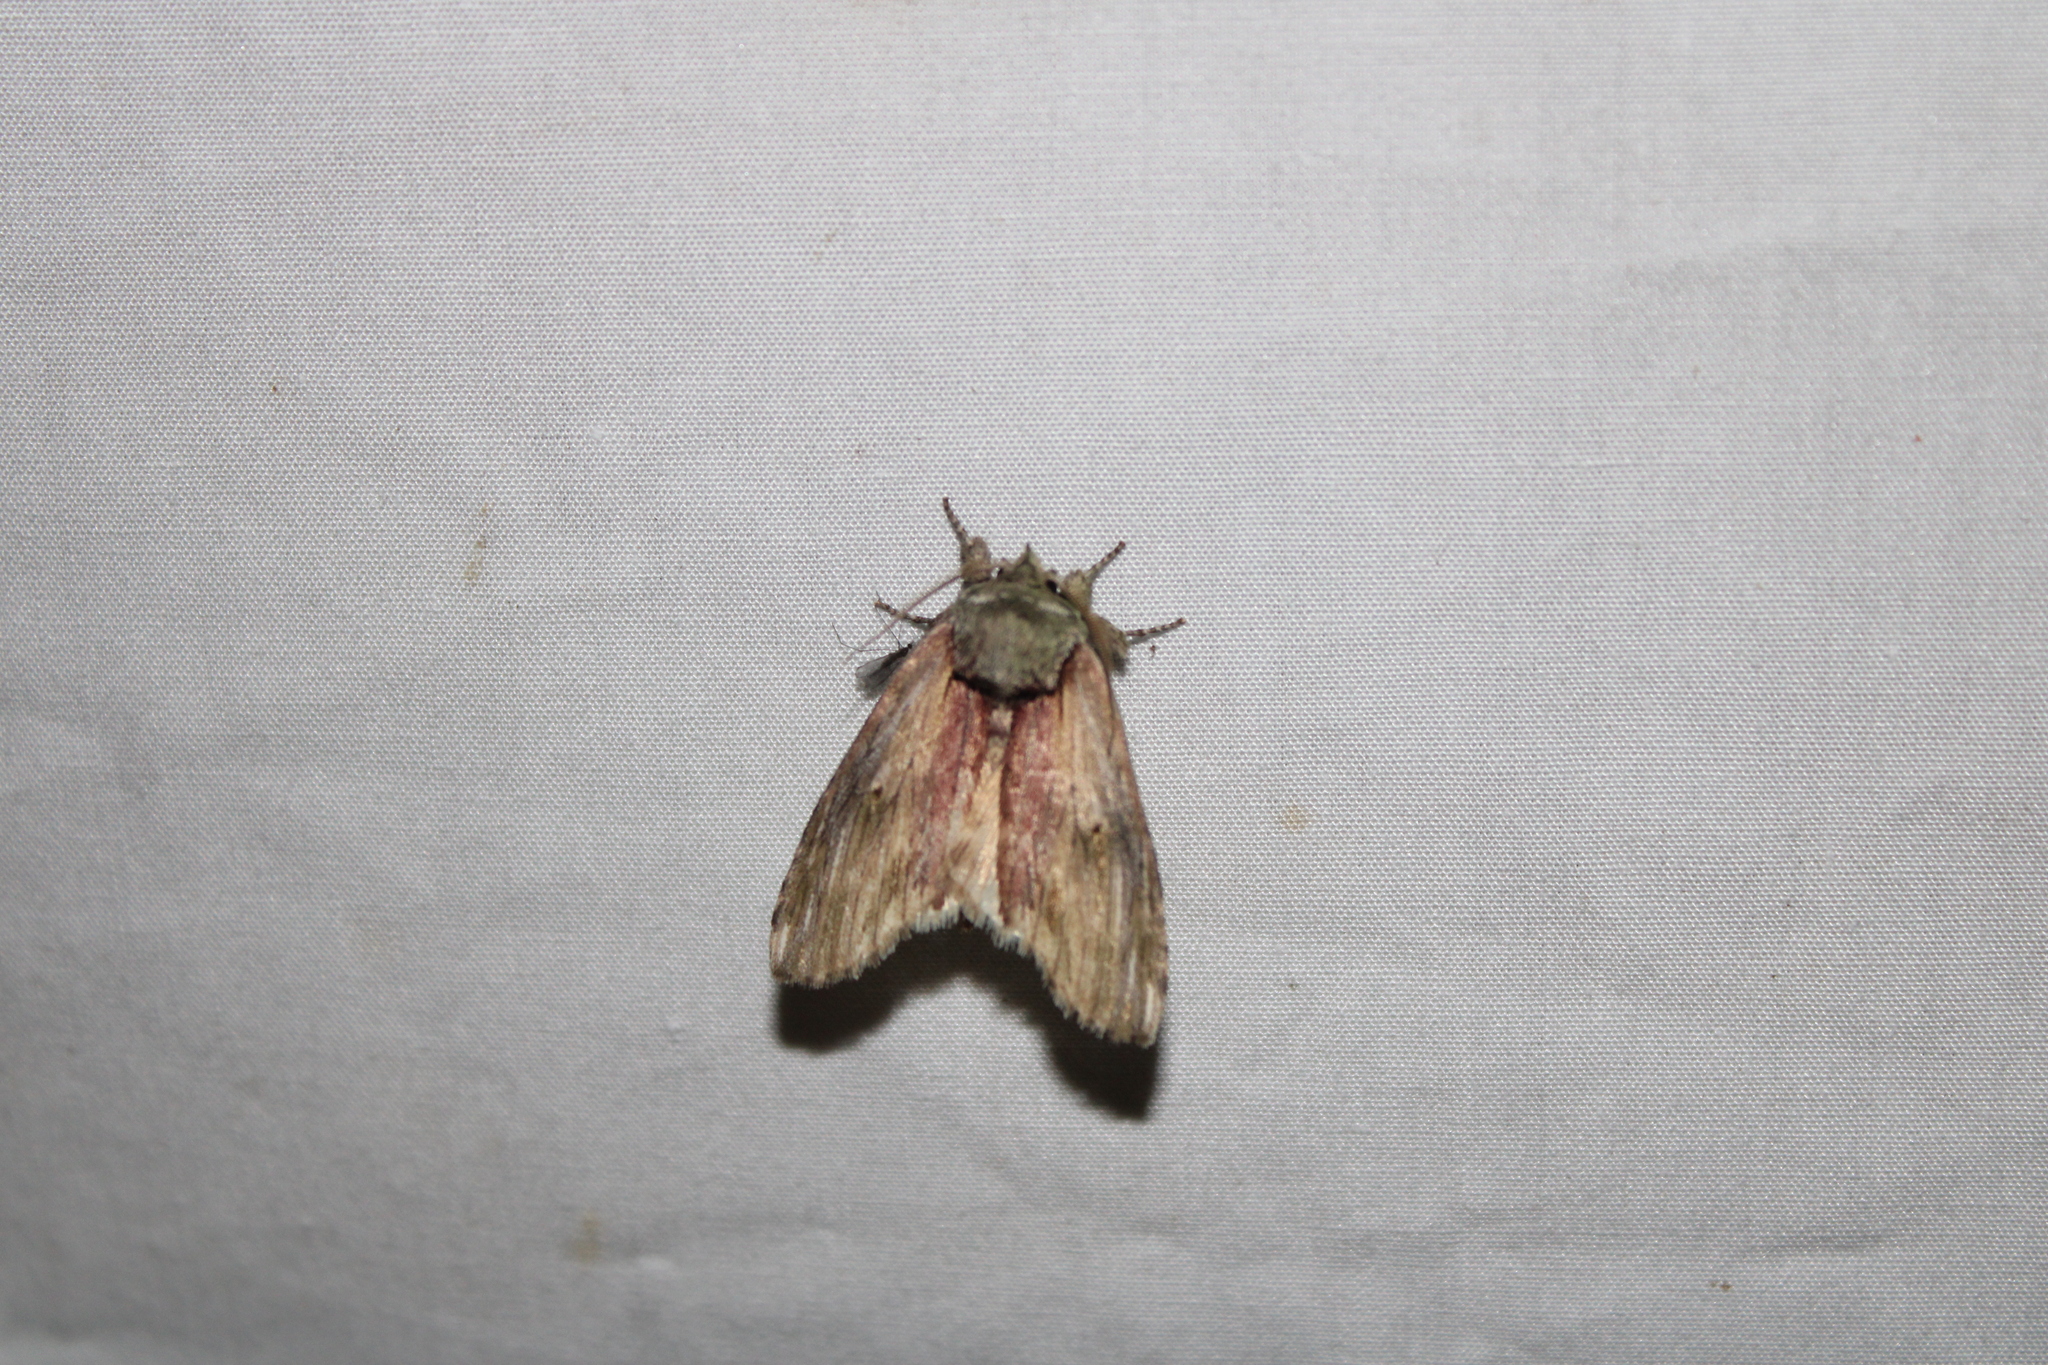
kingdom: Animalia
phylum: Arthropoda
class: Insecta
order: Lepidoptera
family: Notodontidae
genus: Schizura
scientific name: Schizura
